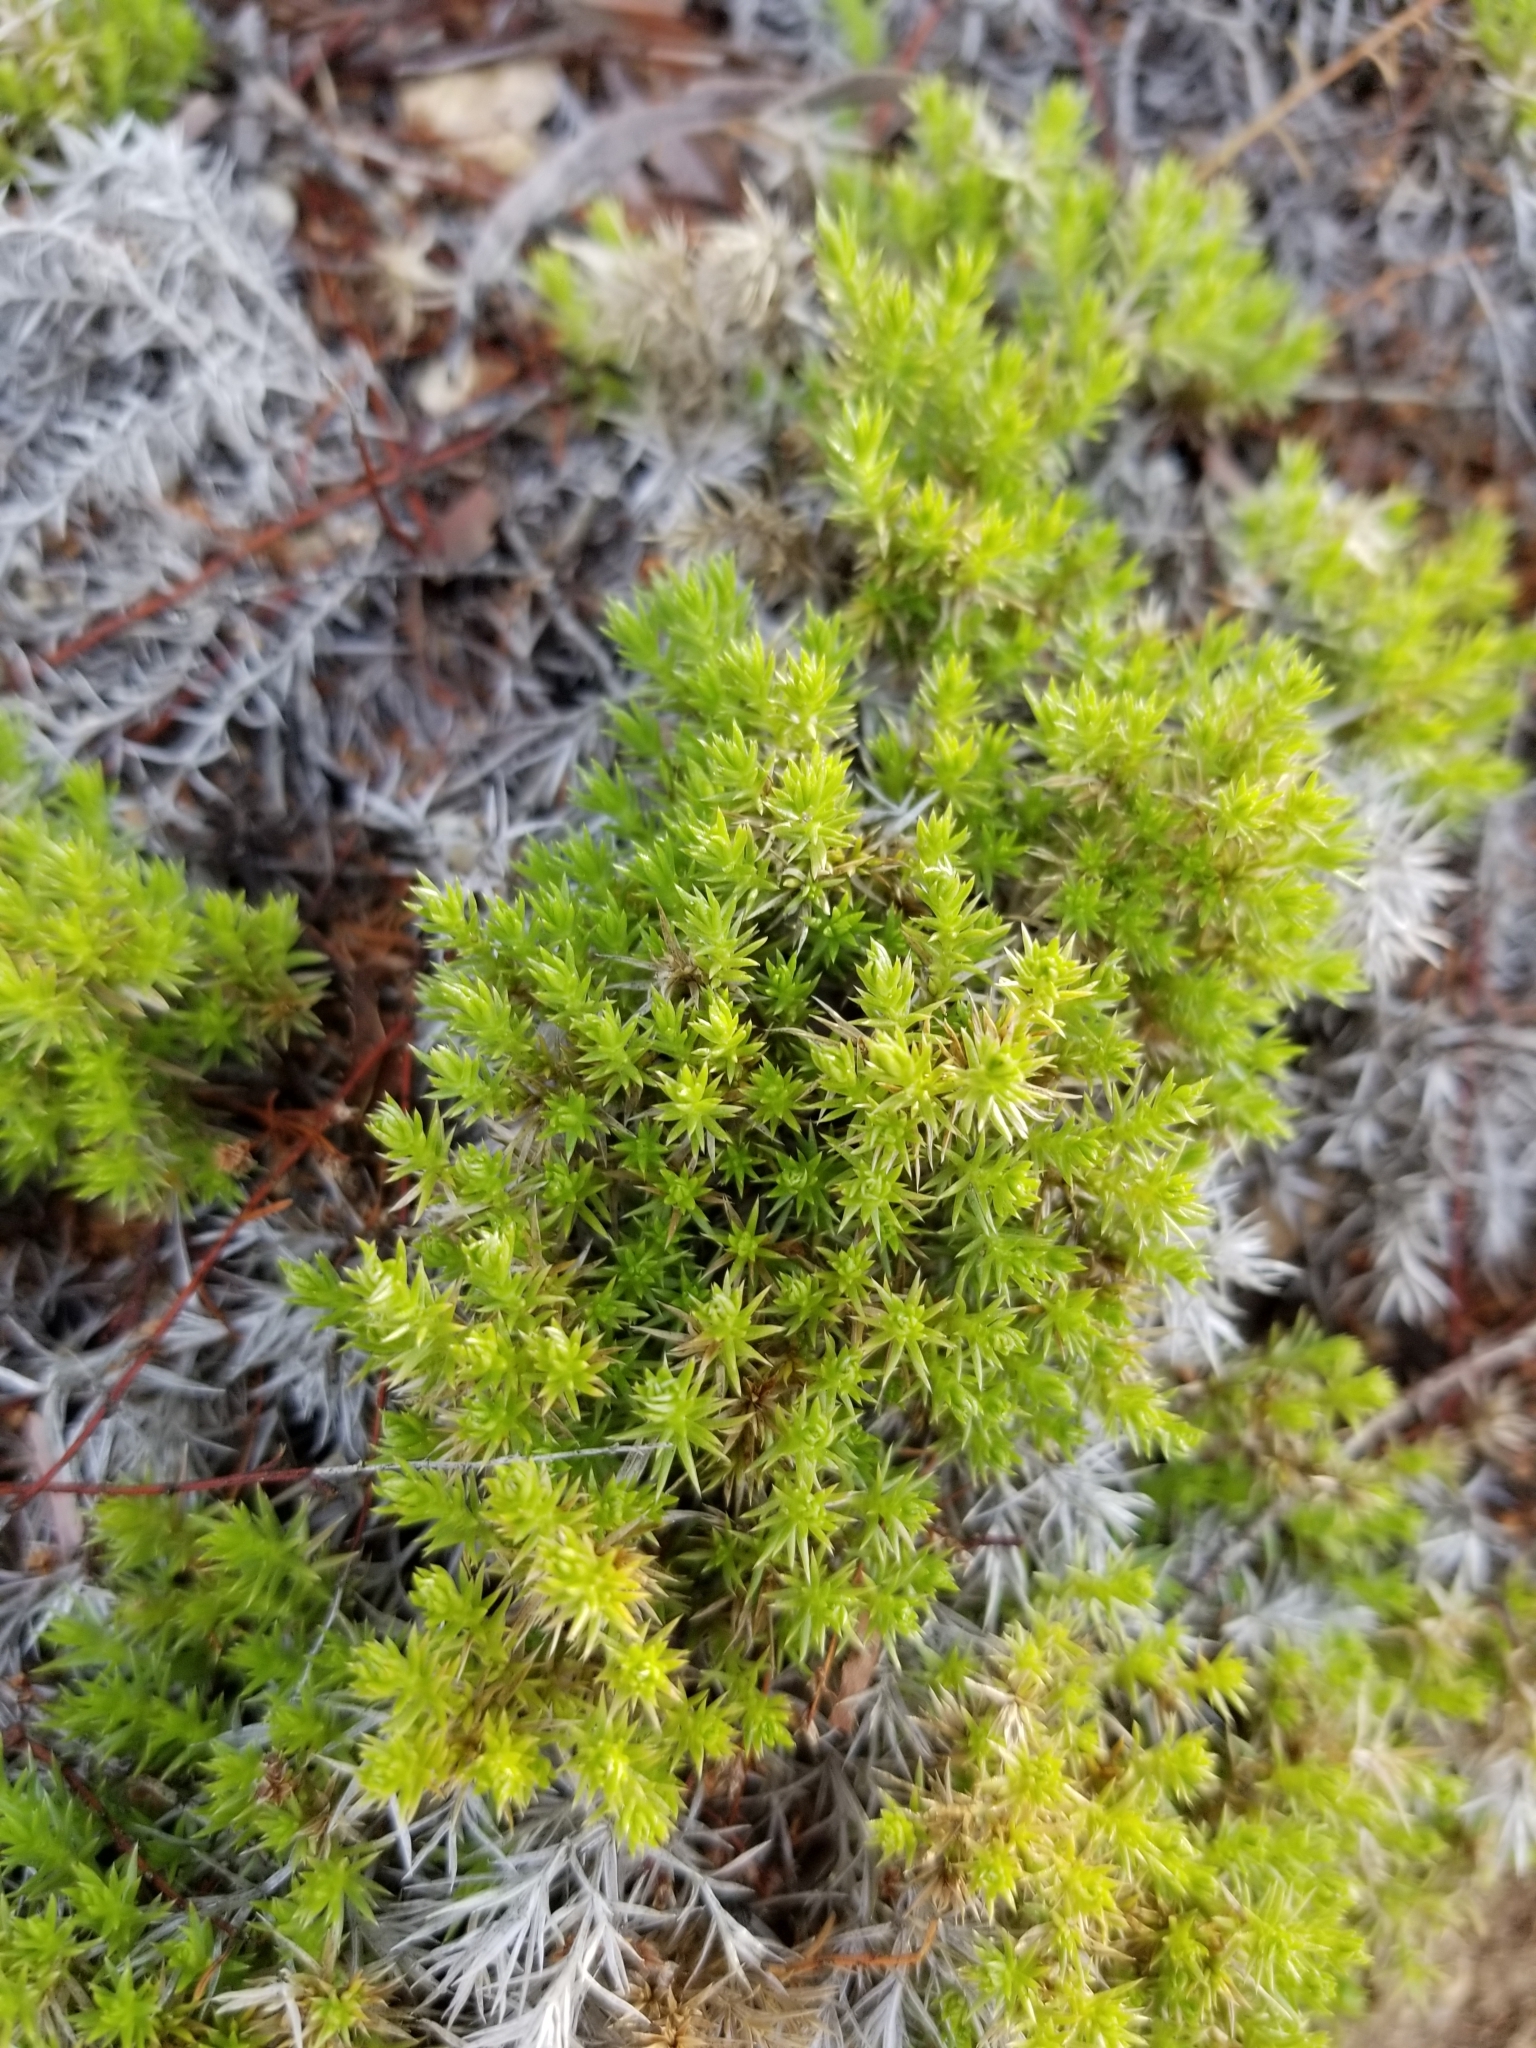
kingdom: Plantae
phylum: Tracheophyta
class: Magnoliopsida
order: Gentianales
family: Rubiaceae
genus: Galium
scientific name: Galium andrewsii
